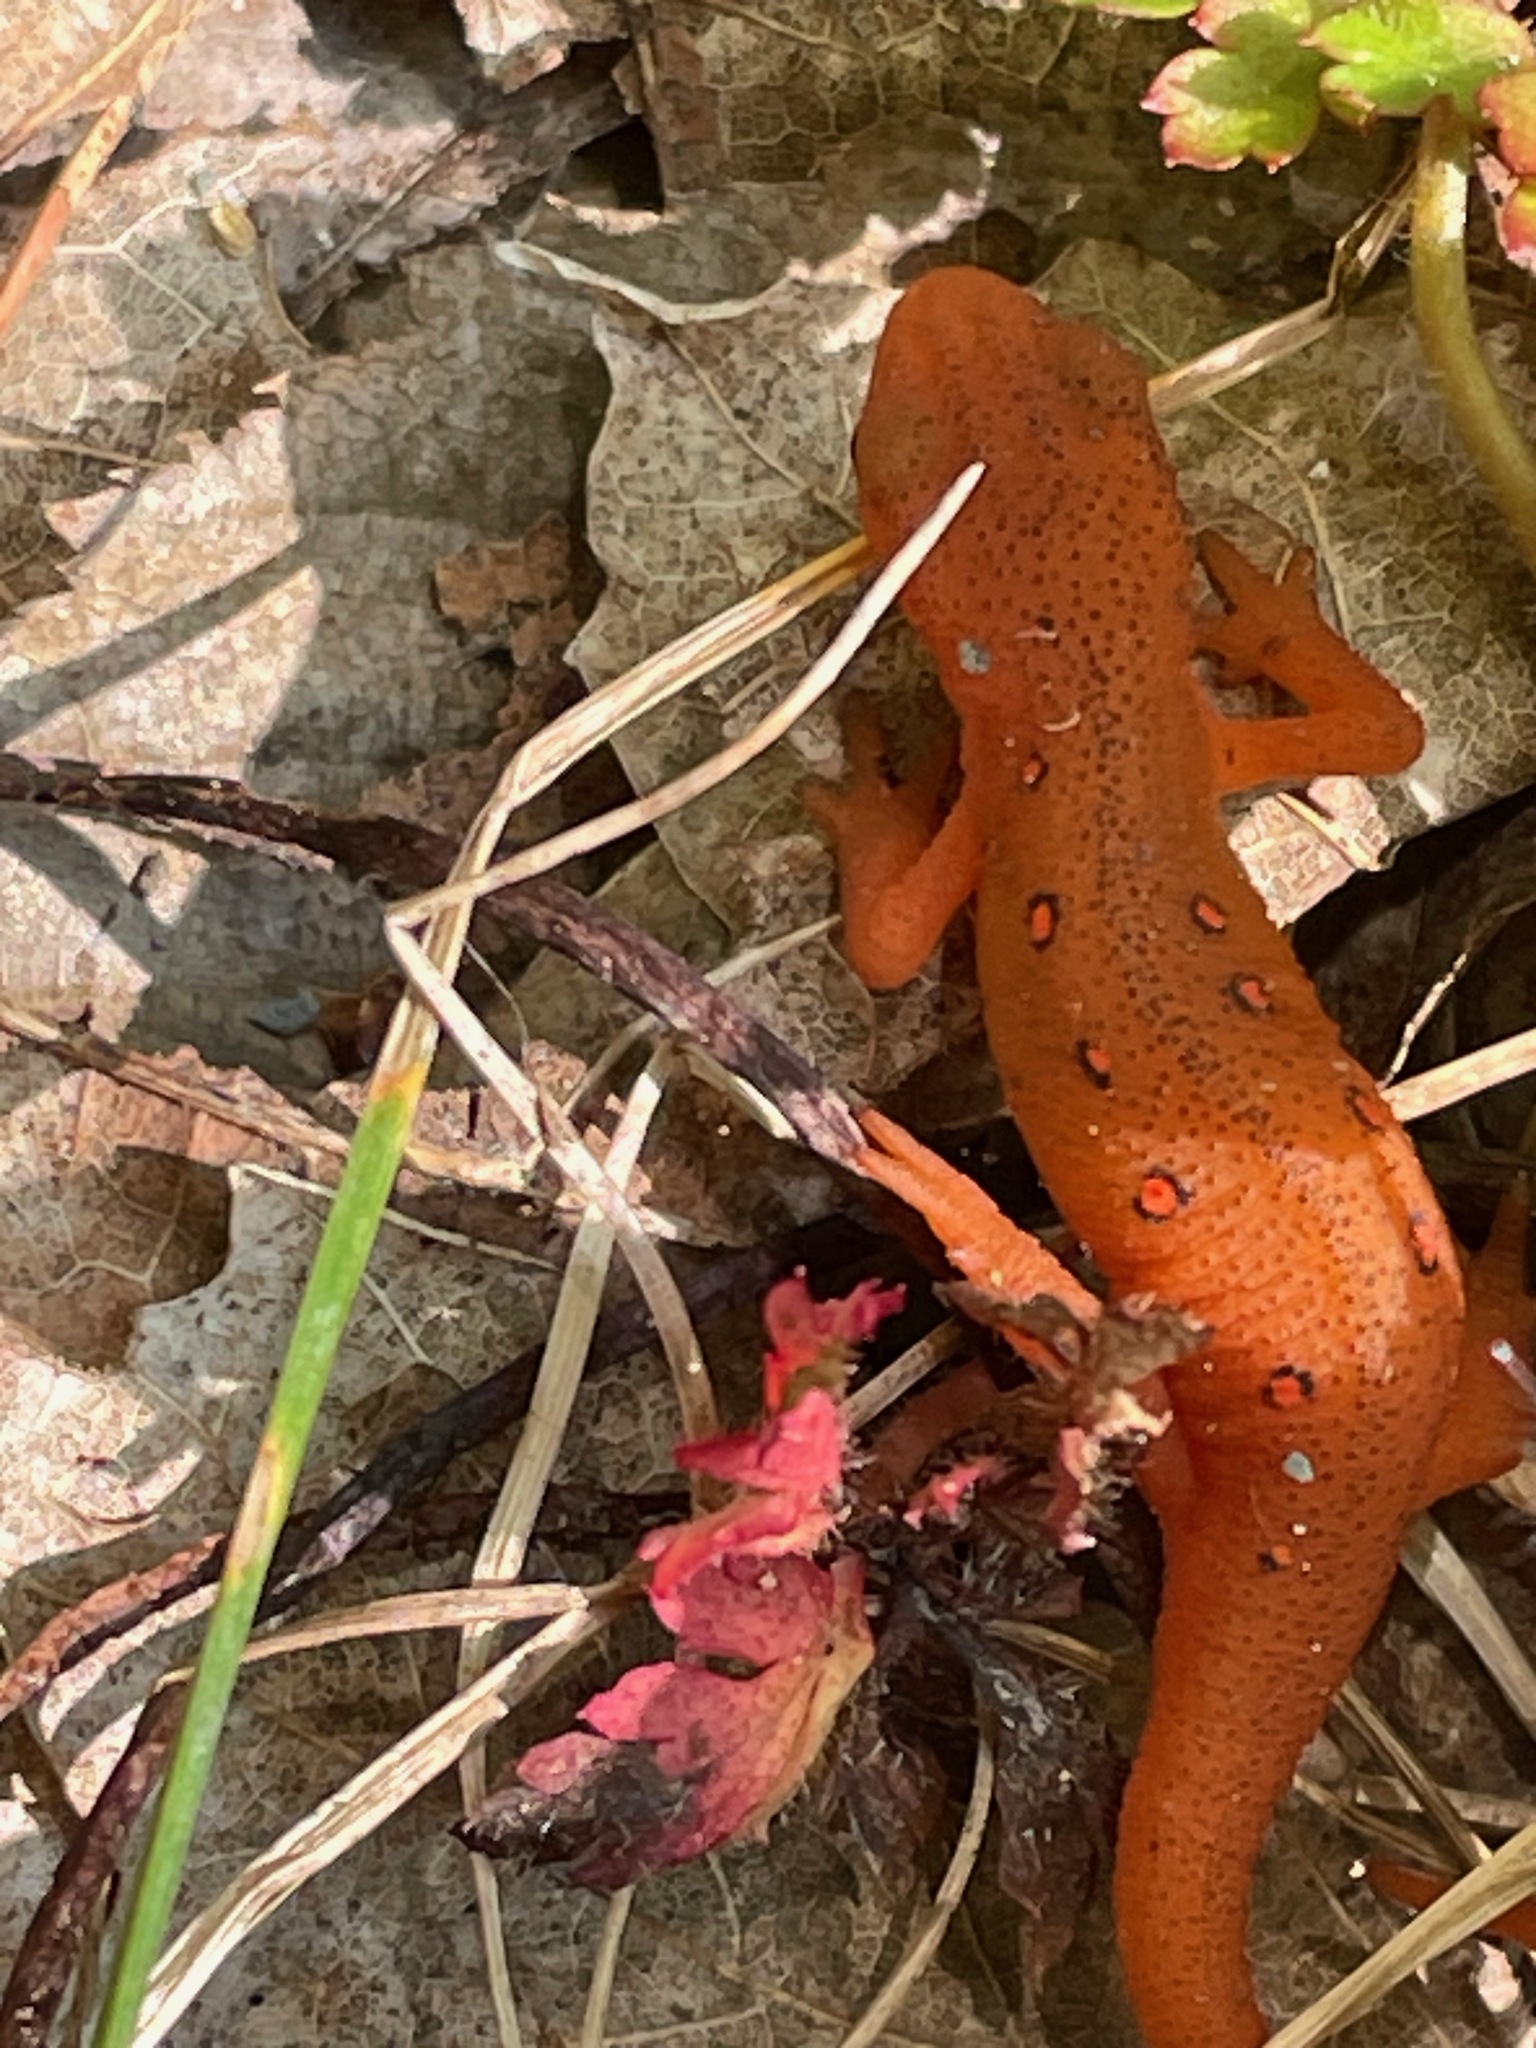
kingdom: Animalia
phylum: Chordata
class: Amphibia
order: Caudata
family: Salamandridae
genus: Notophthalmus
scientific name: Notophthalmus viridescens
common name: Eastern newt
